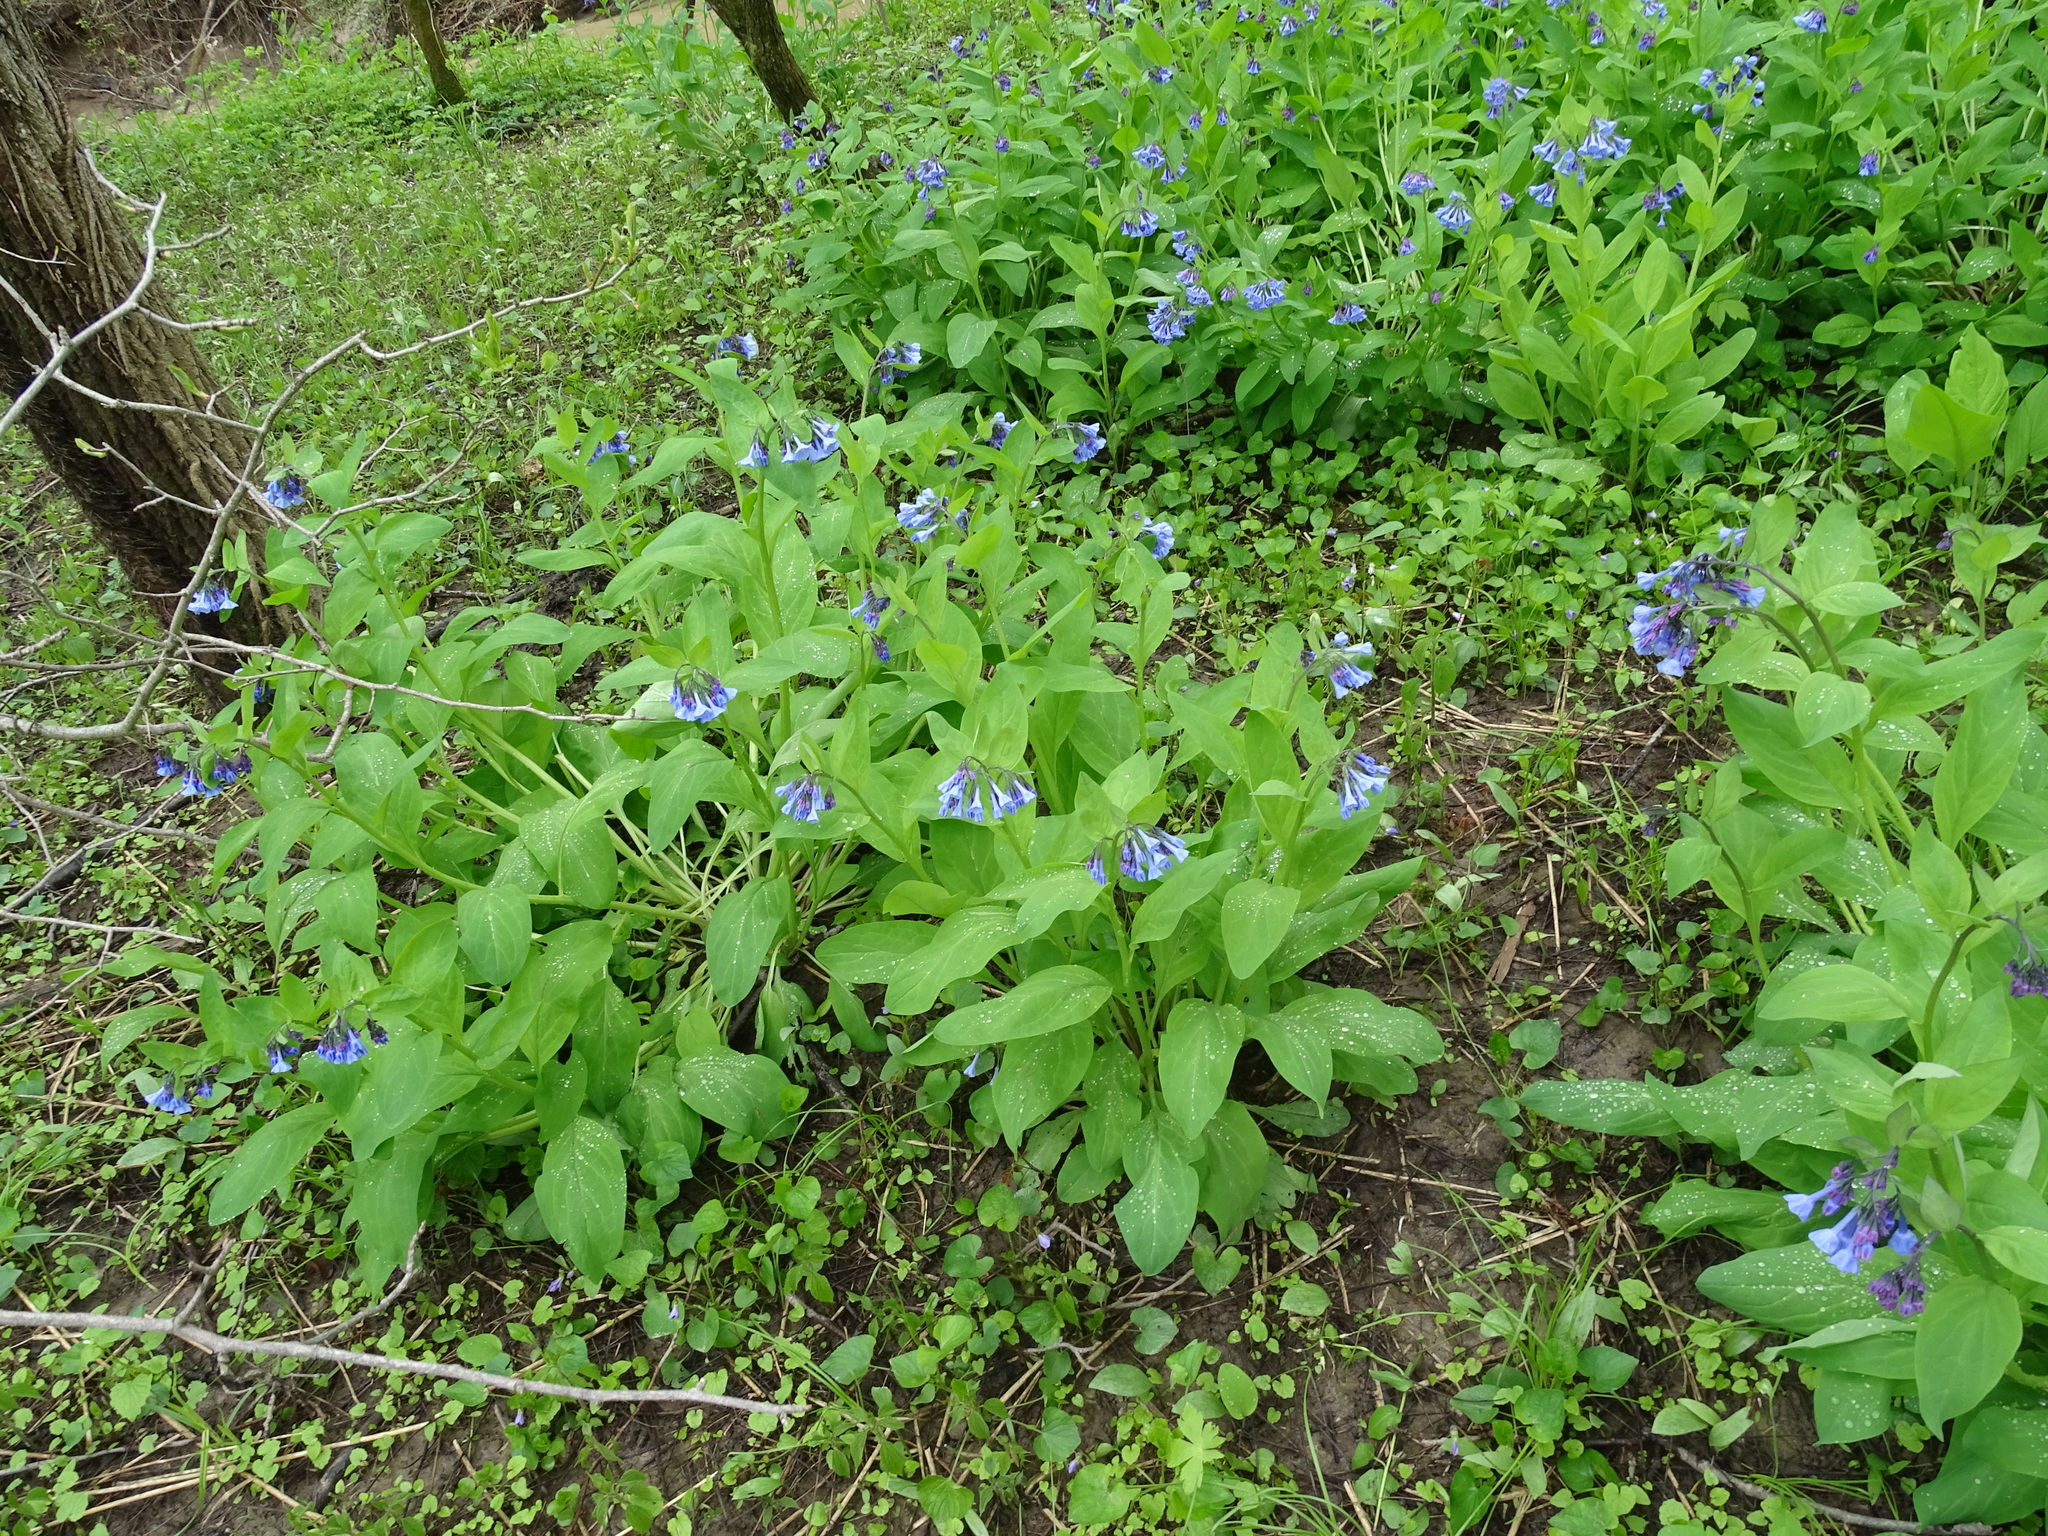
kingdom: Plantae
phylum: Tracheophyta
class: Magnoliopsida
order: Boraginales
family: Boraginaceae
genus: Mertensia
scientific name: Mertensia virginica
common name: Virginia bluebells
